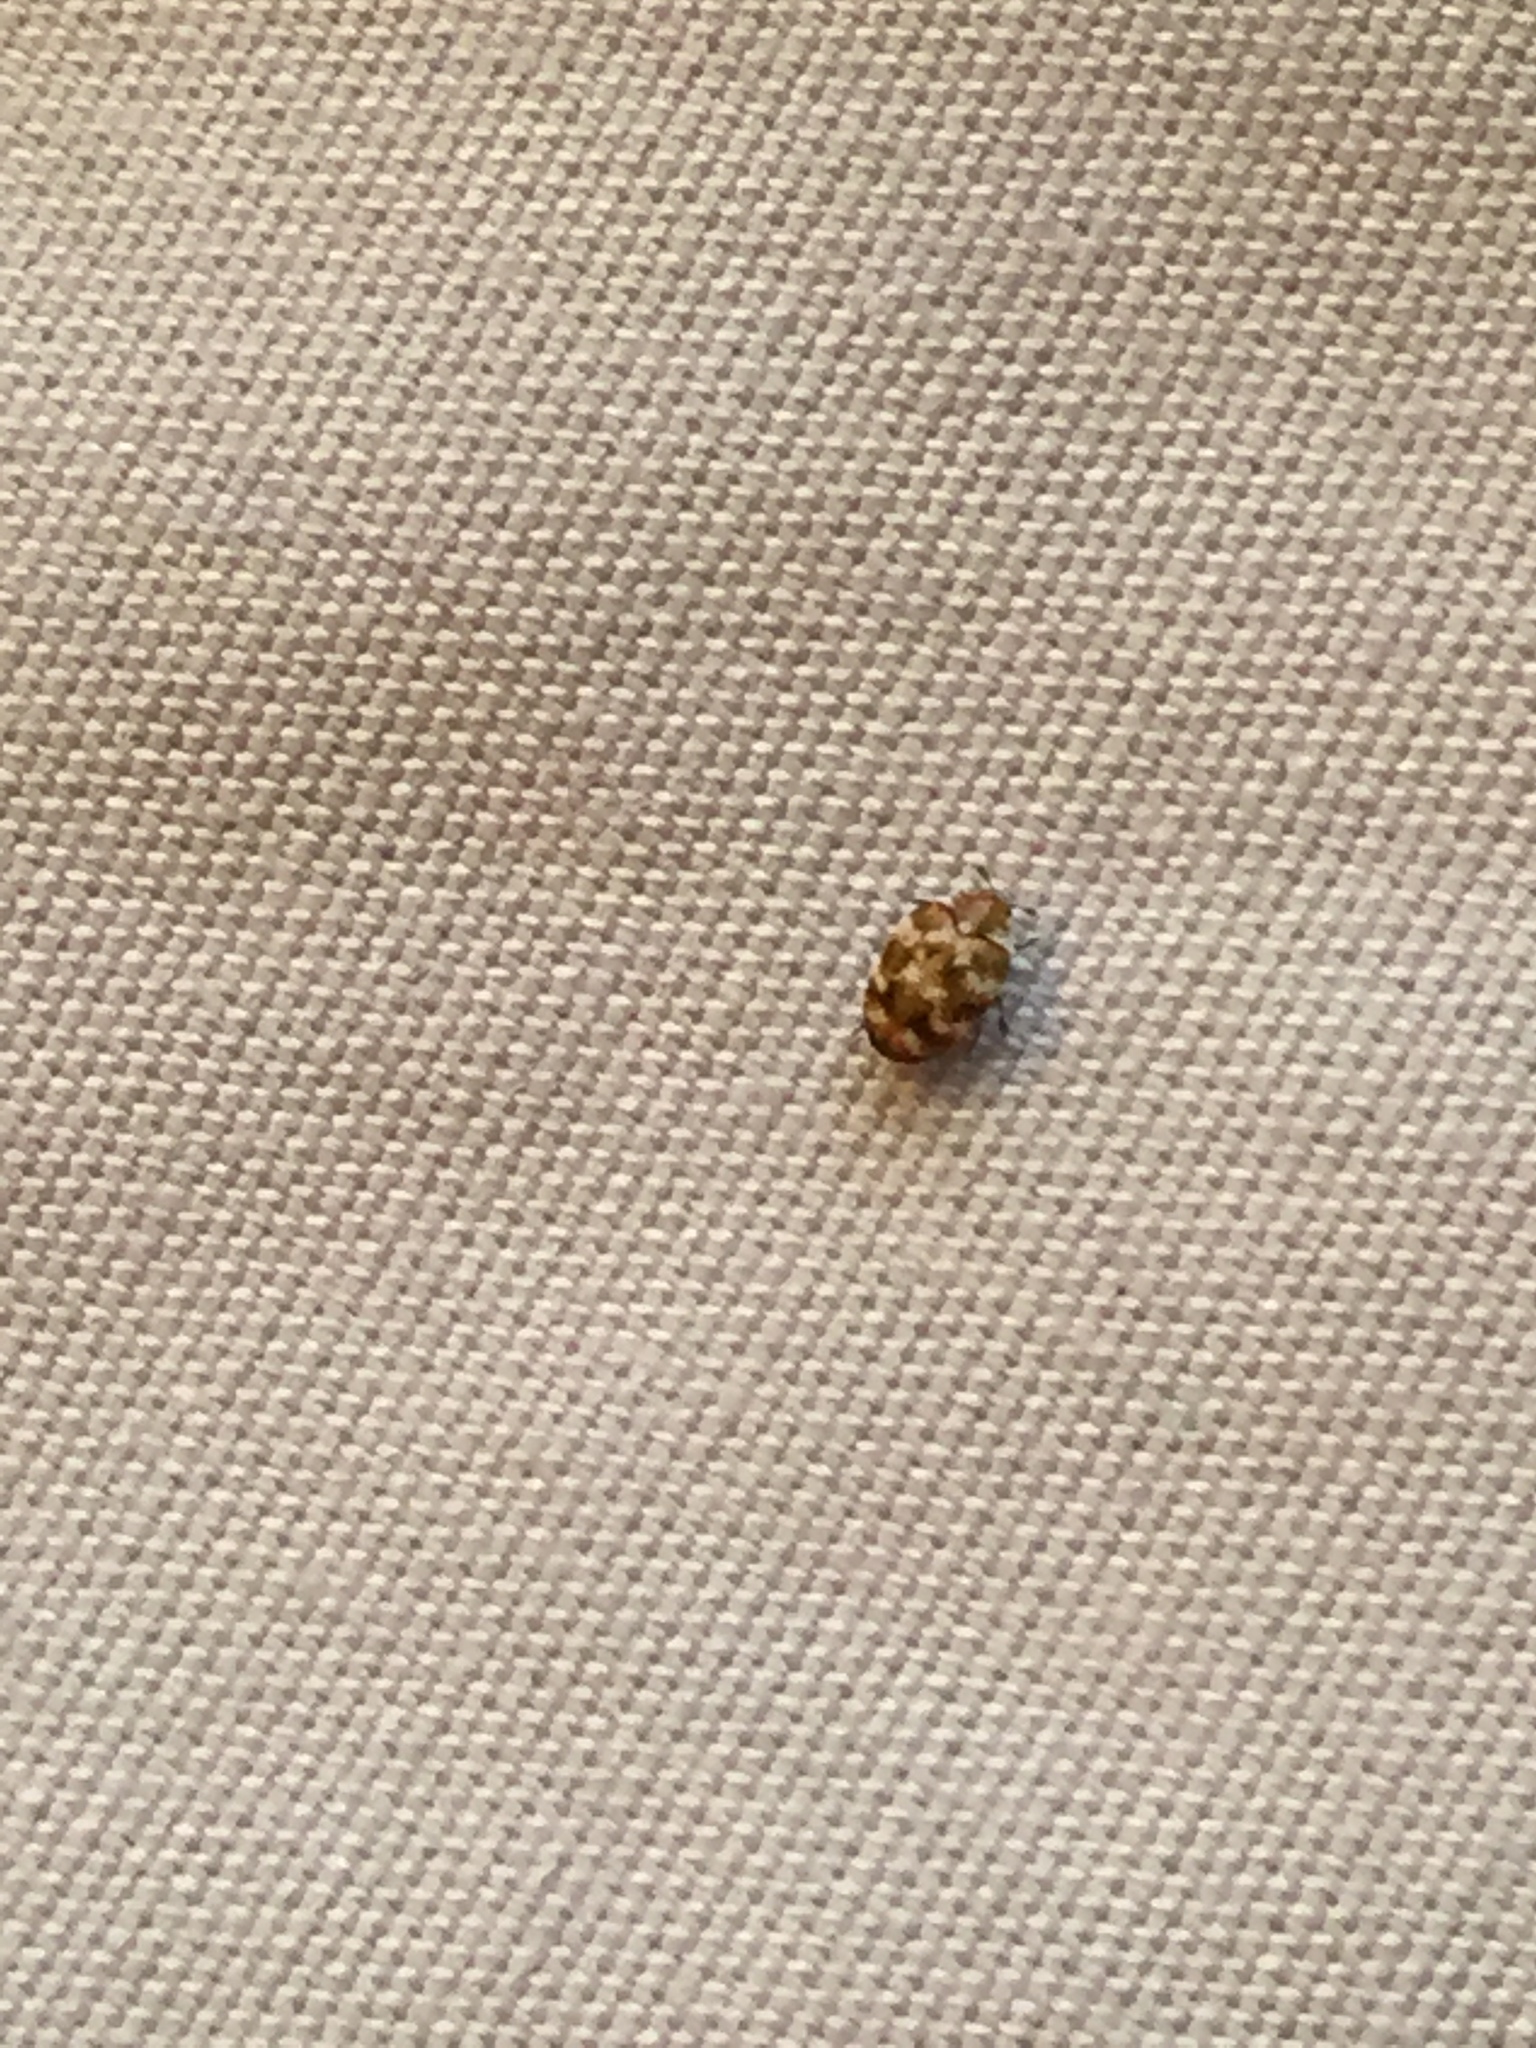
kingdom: Animalia
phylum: Arthropoda
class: Insecta
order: Coleoptera
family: Dermestidae
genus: Anthrenus
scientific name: Anthrenus verbasci
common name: Varied carpet beetle
